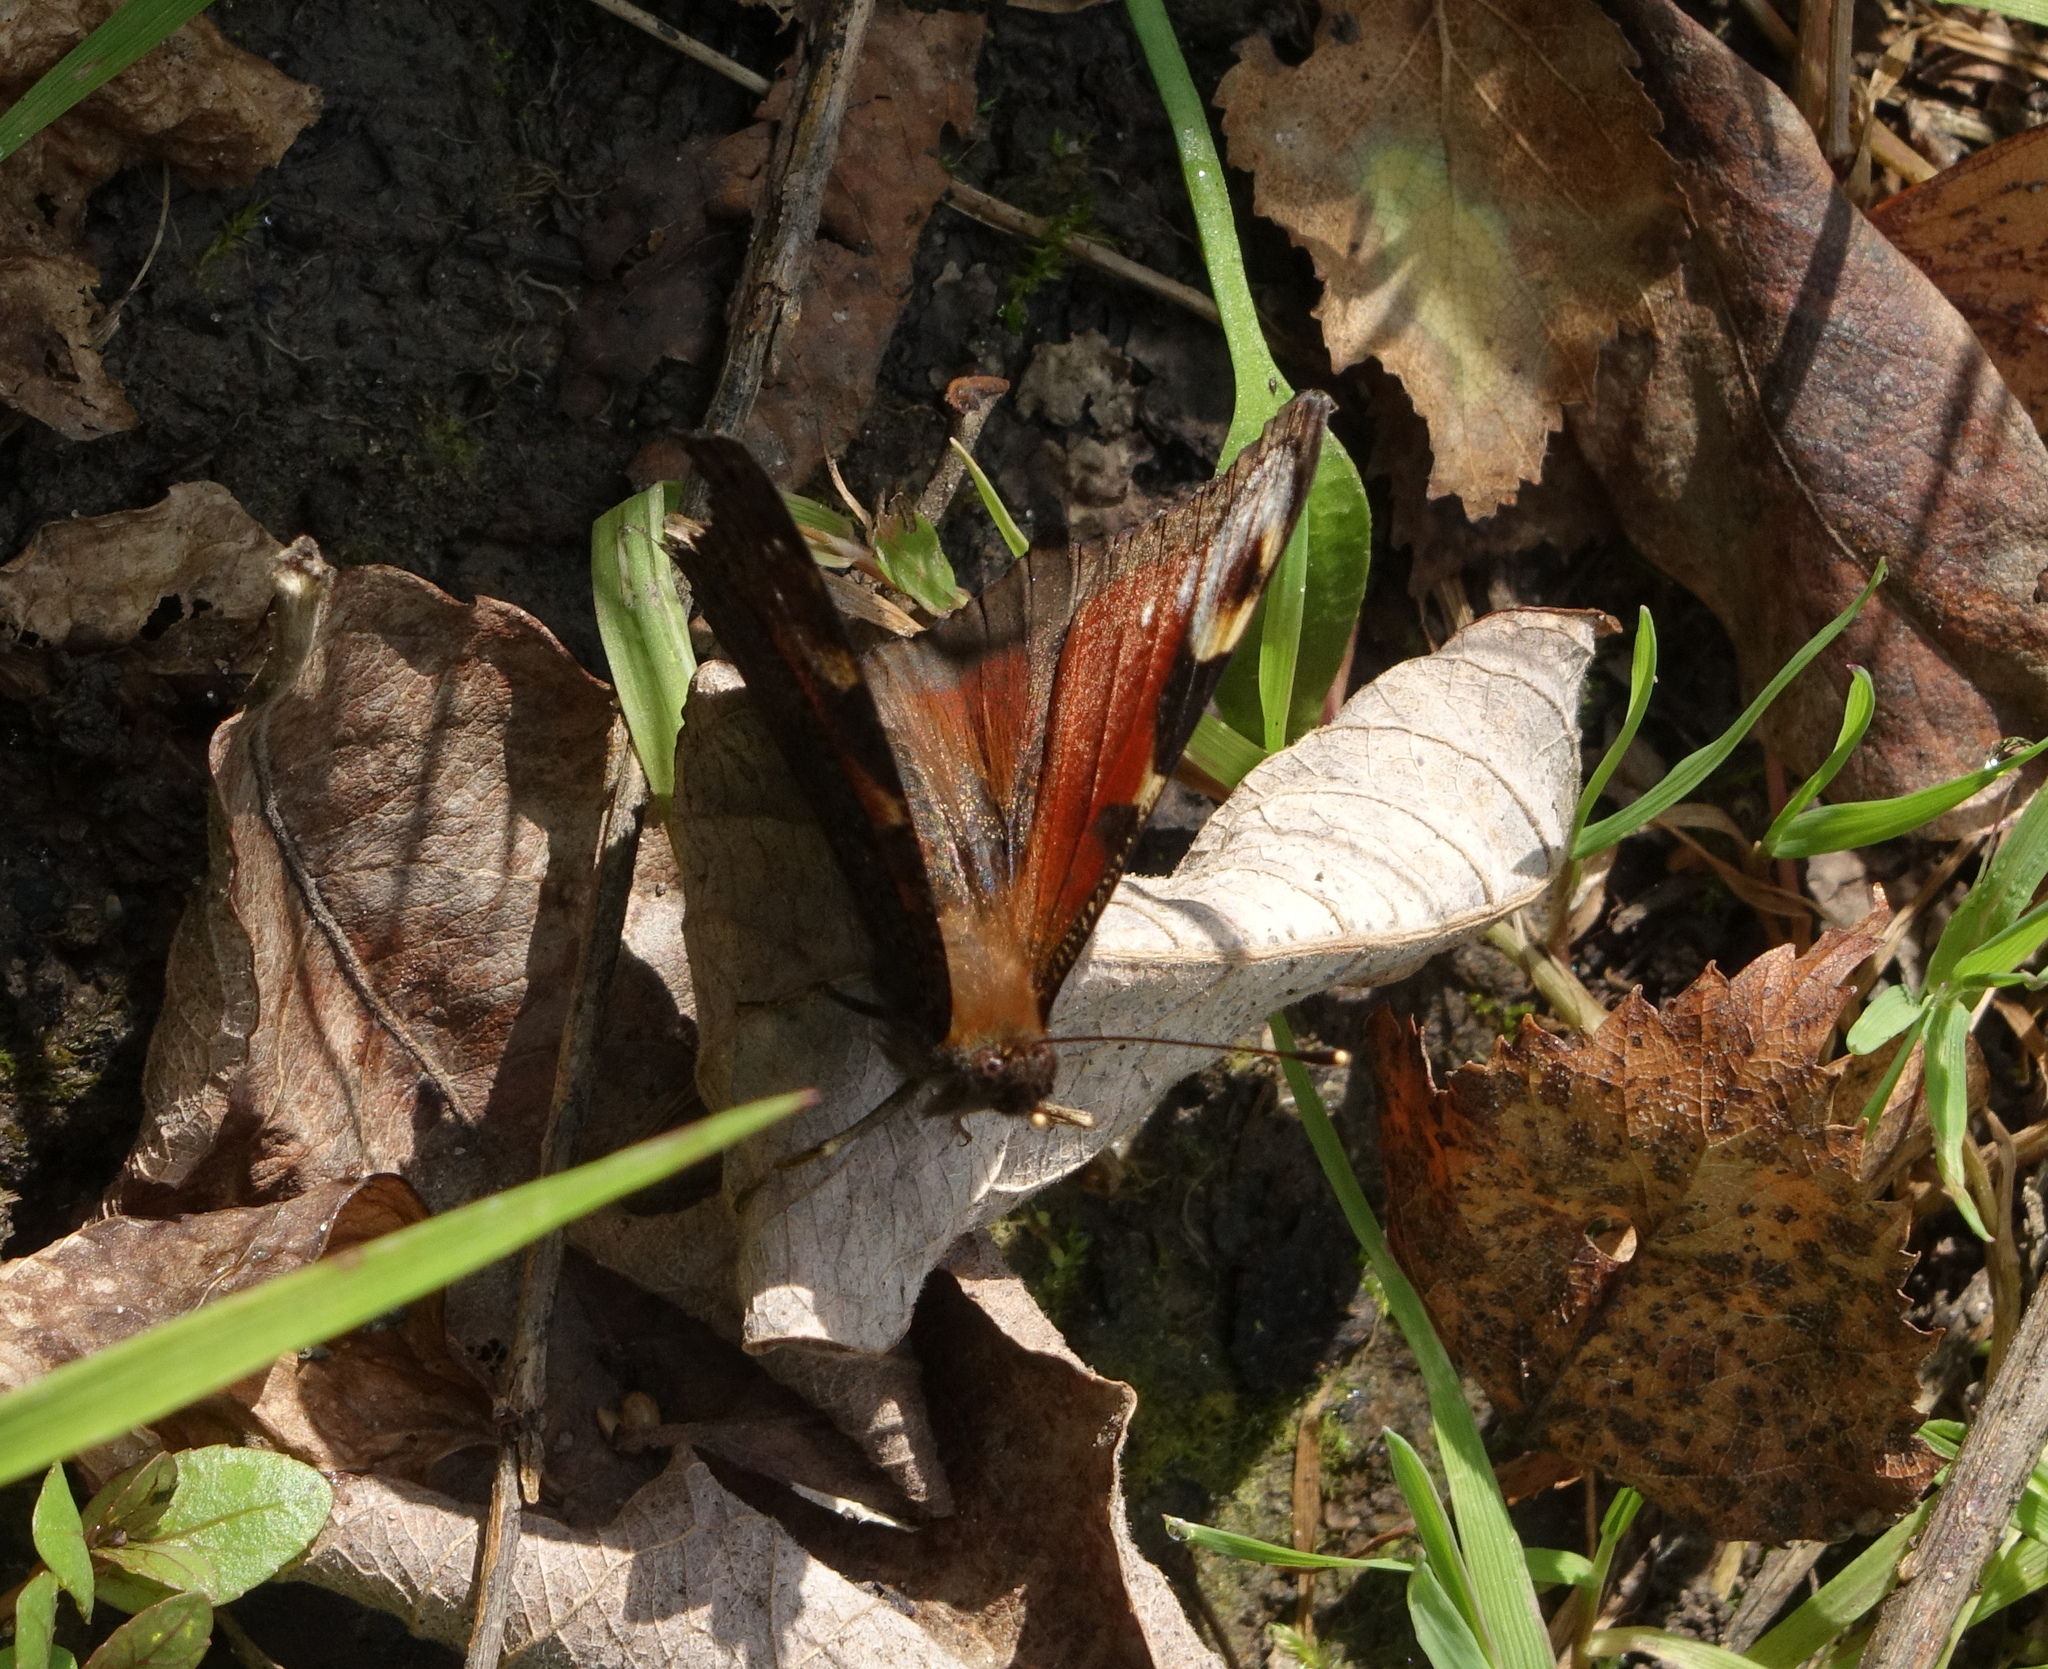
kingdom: Animalia
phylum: Arthropoda
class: Insecta
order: Lepidoptera
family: Nymphalidae
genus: Aglais
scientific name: Aglais io
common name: Peacock
